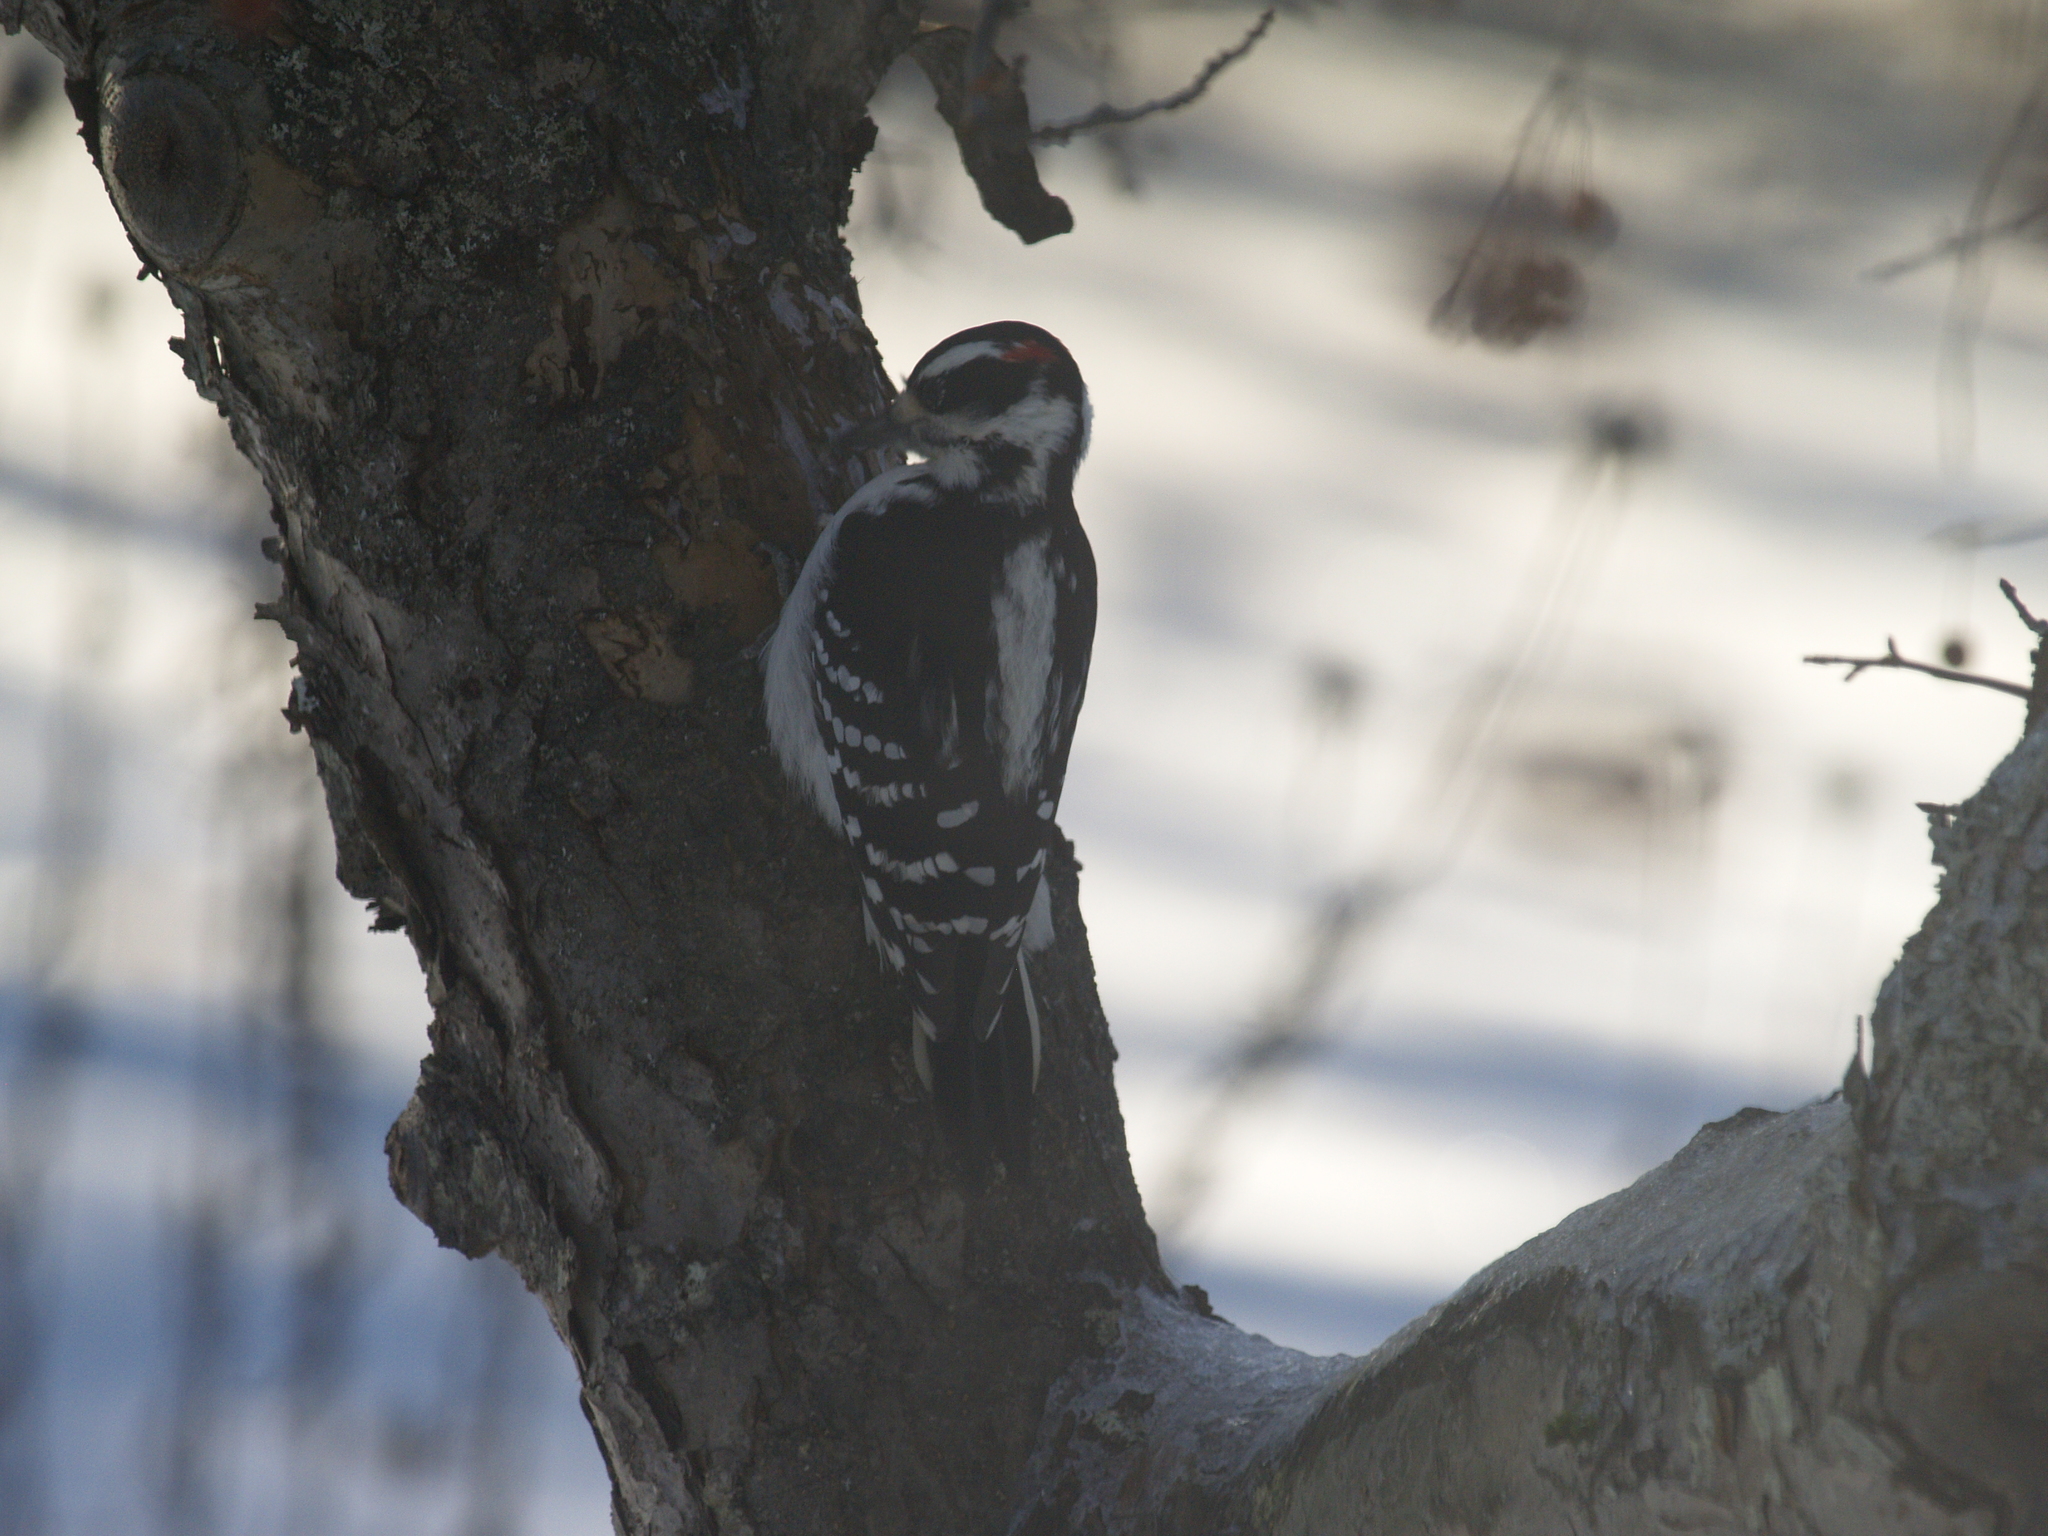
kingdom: Animalia
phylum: Chordata
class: Aves
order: Piciformes
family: Picidae
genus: Dryobates
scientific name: Dryobates pubescens
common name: Downy woodpecker
